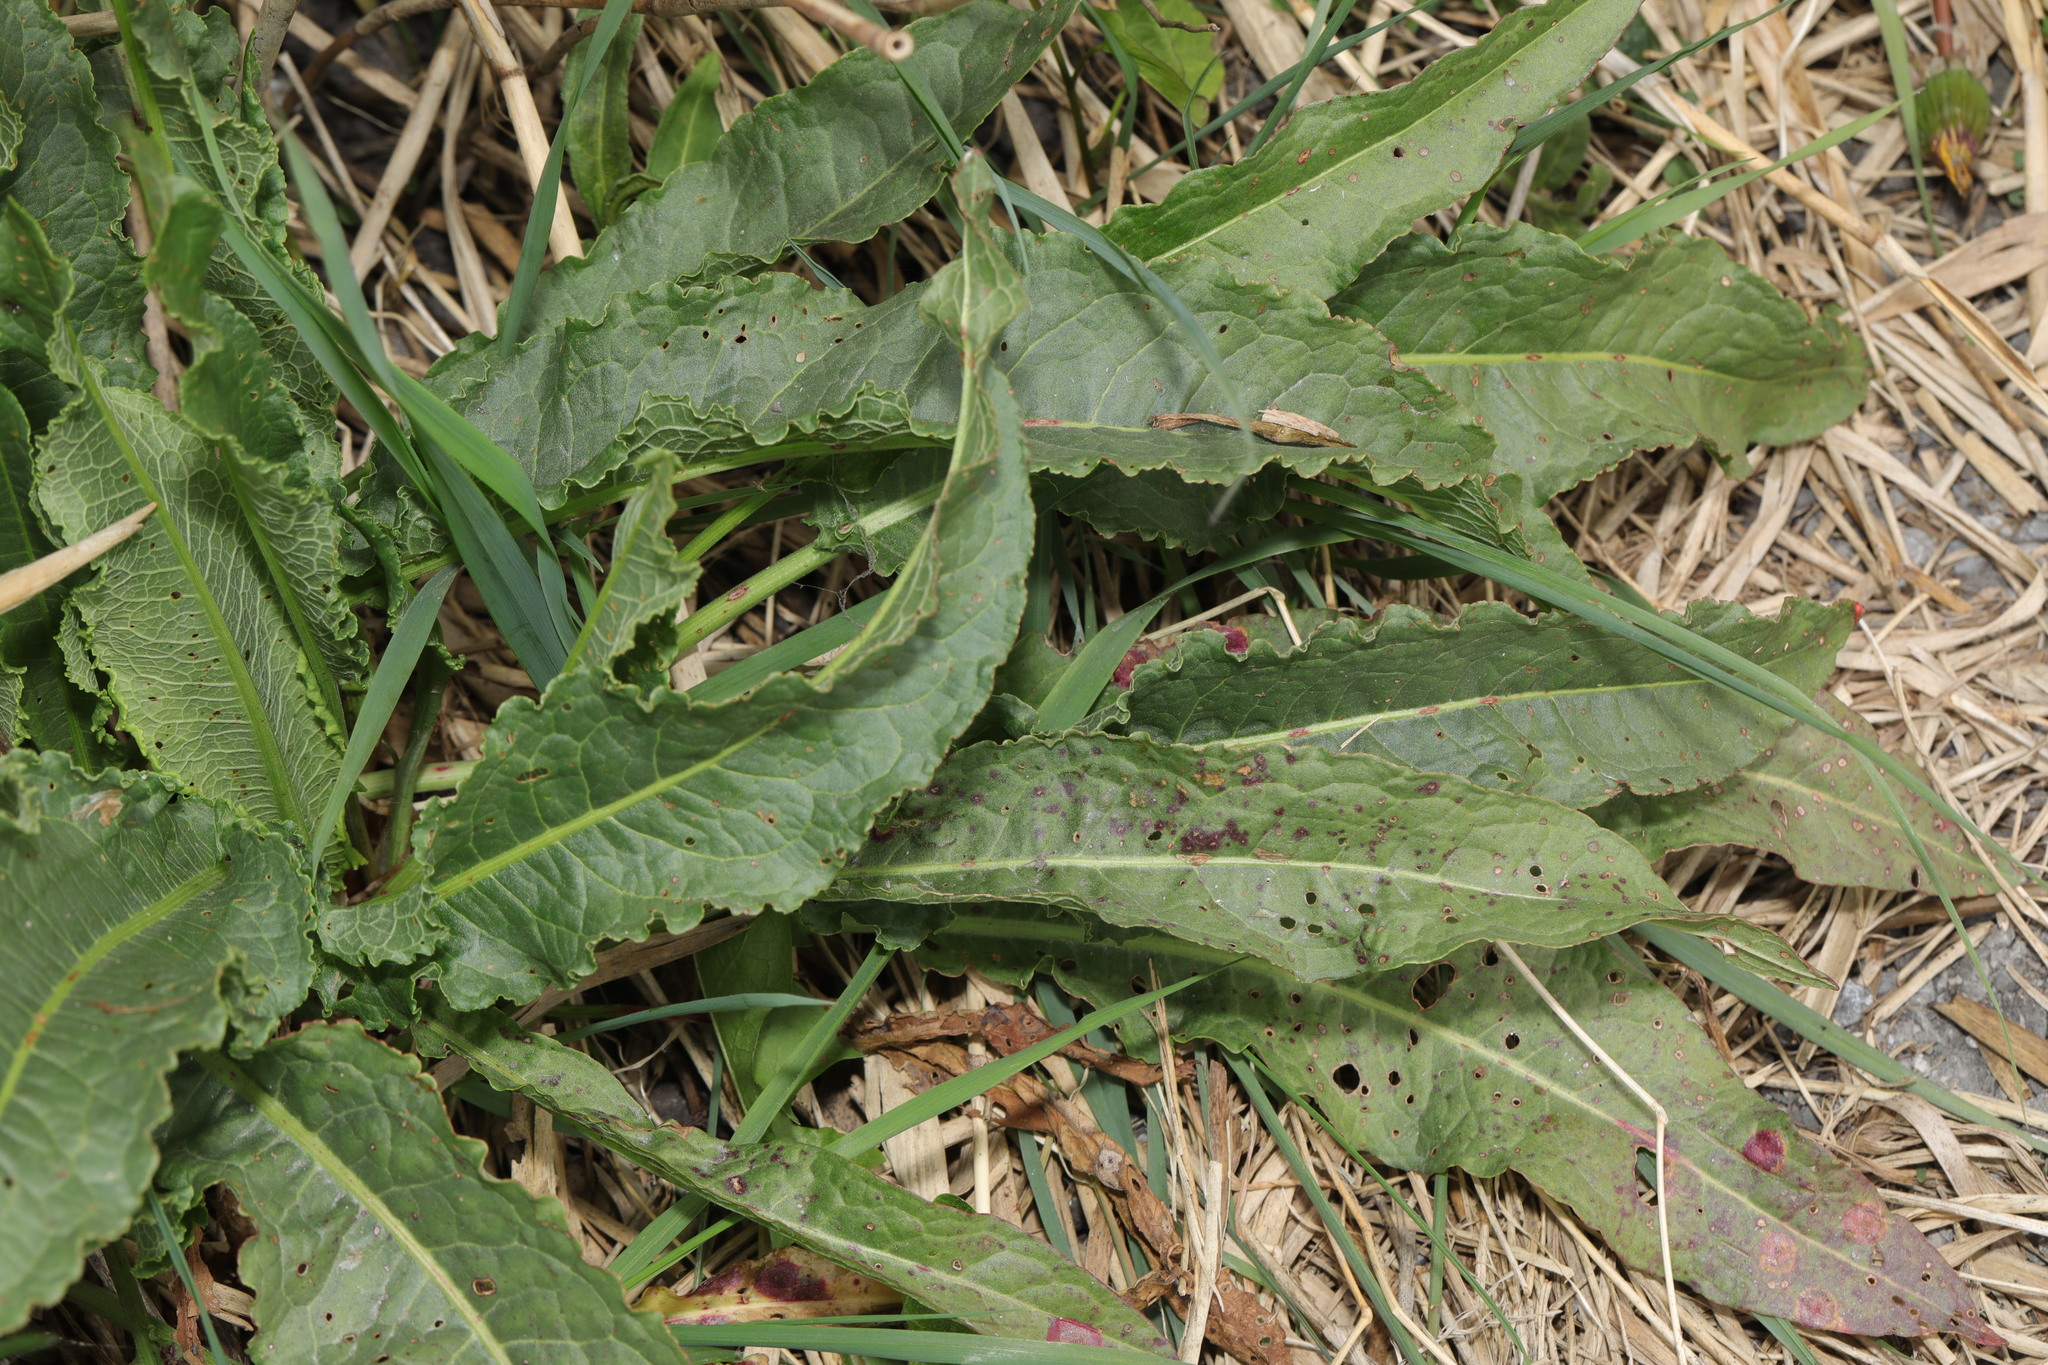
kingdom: Plantae
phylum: Tracheophyta
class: Magnoliopsida
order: Caryophyllales
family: Polygonaceae
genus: Rumex
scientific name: Rumex crispus
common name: Curled dock
